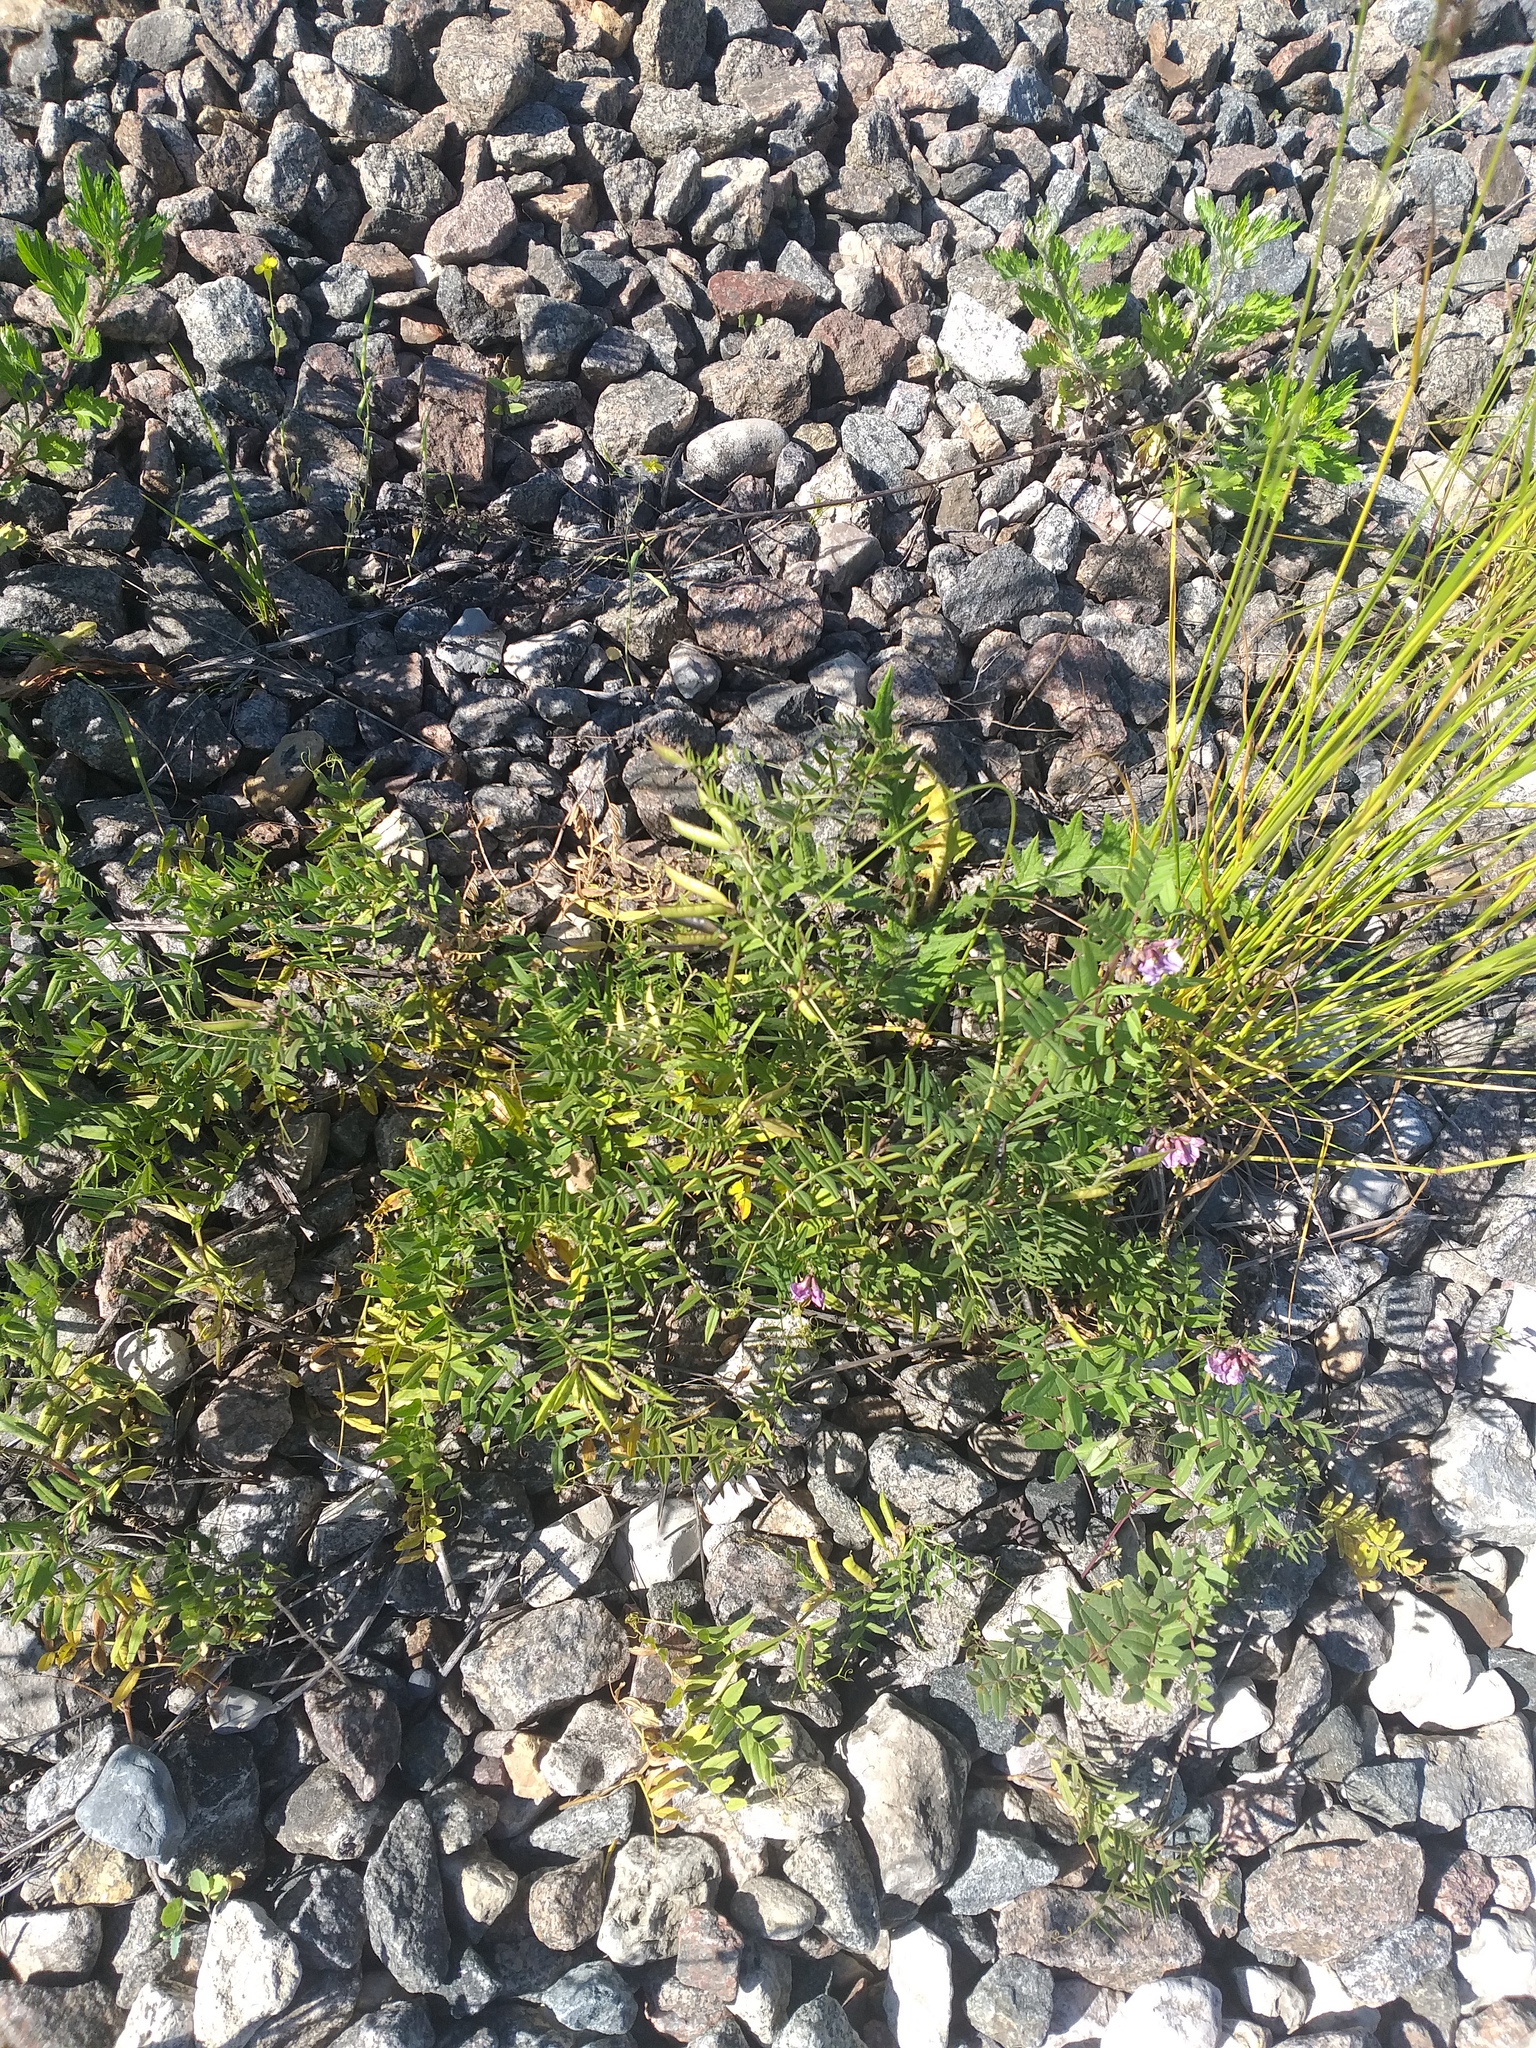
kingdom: Plantae
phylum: Tracheophyta
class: Magnoliopsida
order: Fabales
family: Fabaceae
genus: Vicia
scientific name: Vicia sepium
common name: Bush vetch
